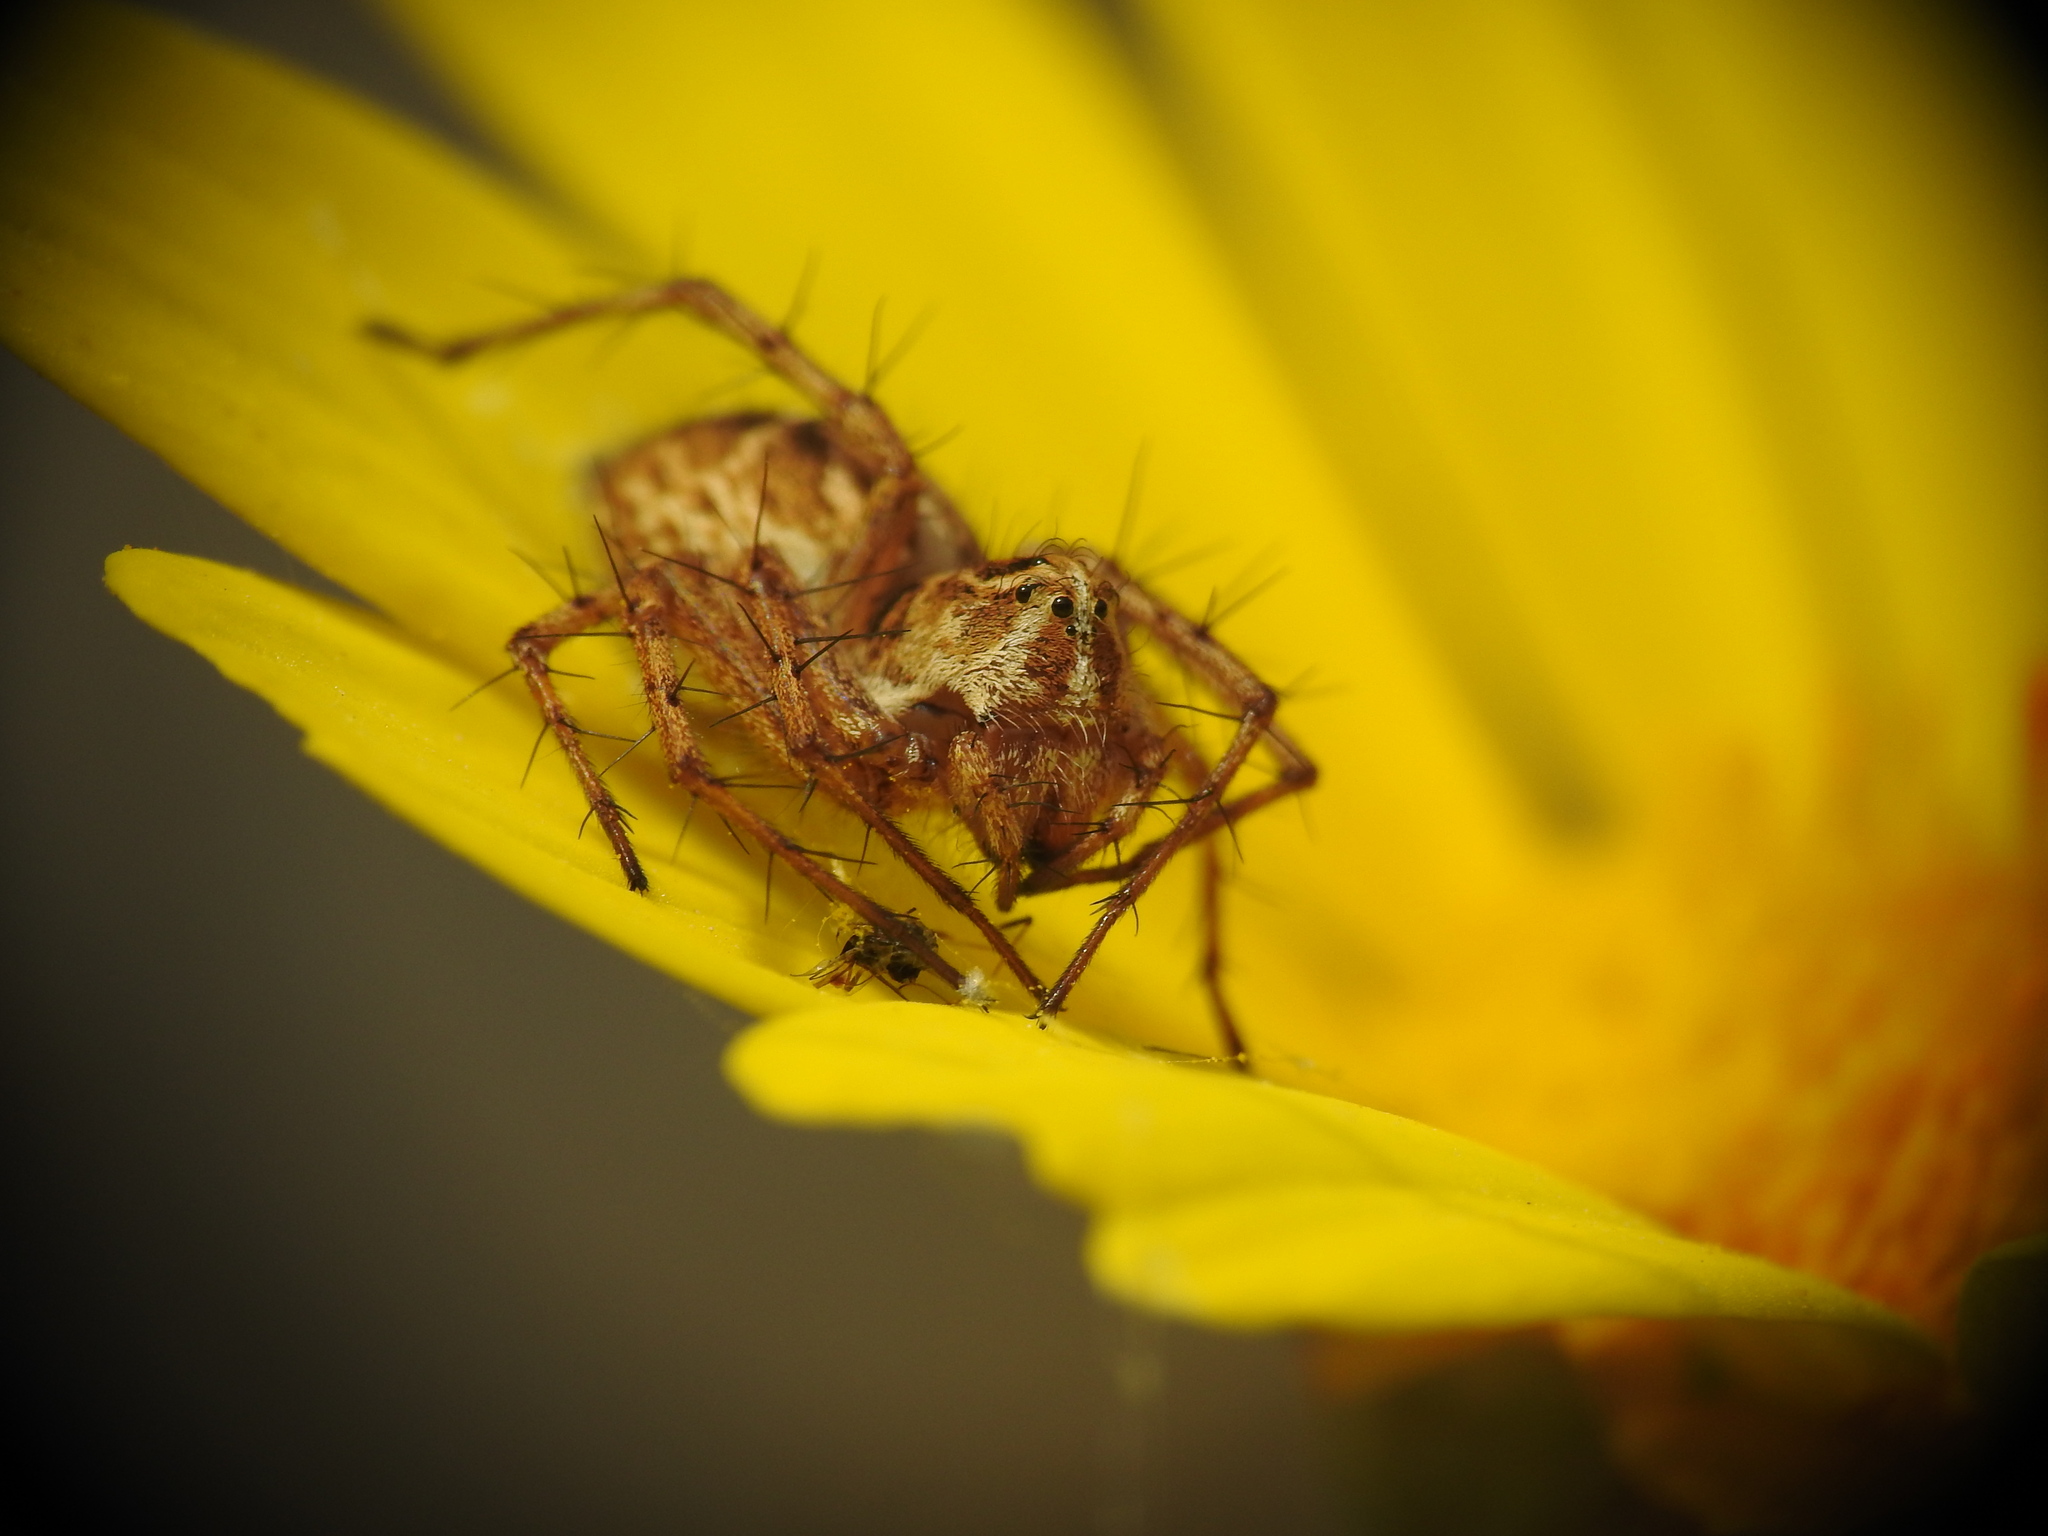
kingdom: Animalia
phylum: Arthropoda
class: Arachnida
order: Araneae
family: Oxyopidae
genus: Oxyopes
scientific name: Oxyopes heterophthalmus
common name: Lynx spider
